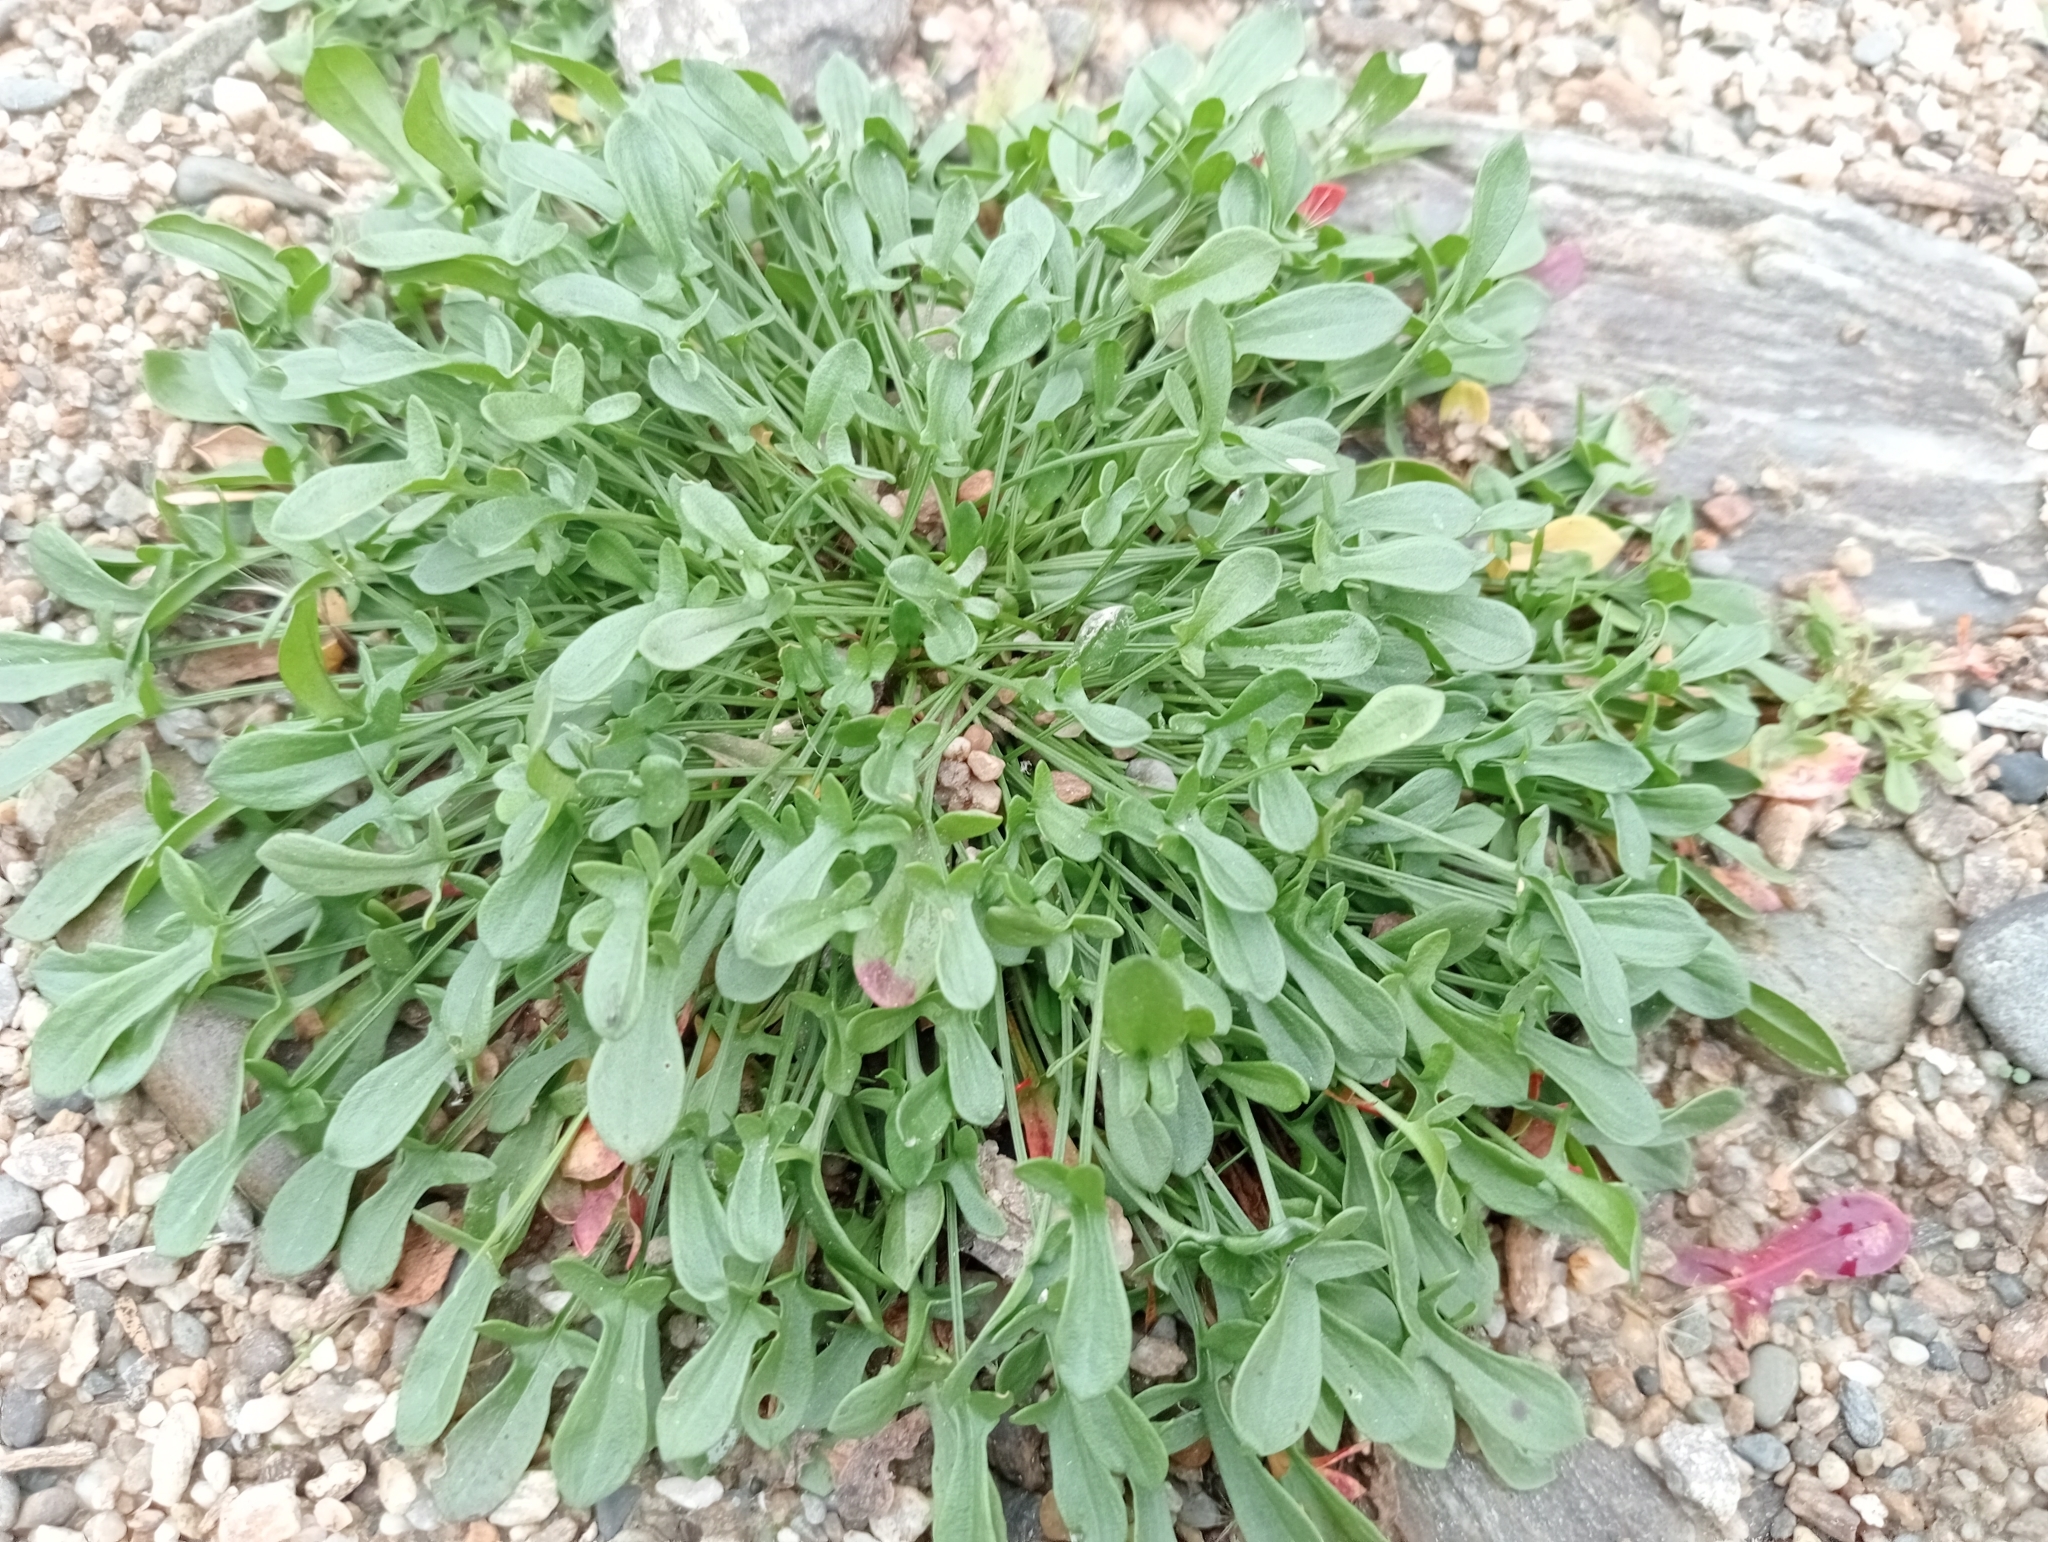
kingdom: Plantae
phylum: Tracheophyta
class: Magnoliopsida
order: Caryophyllales
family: Polygonaceae
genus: Rumex
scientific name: Rumex acetosella
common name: Common sheep sorrel
